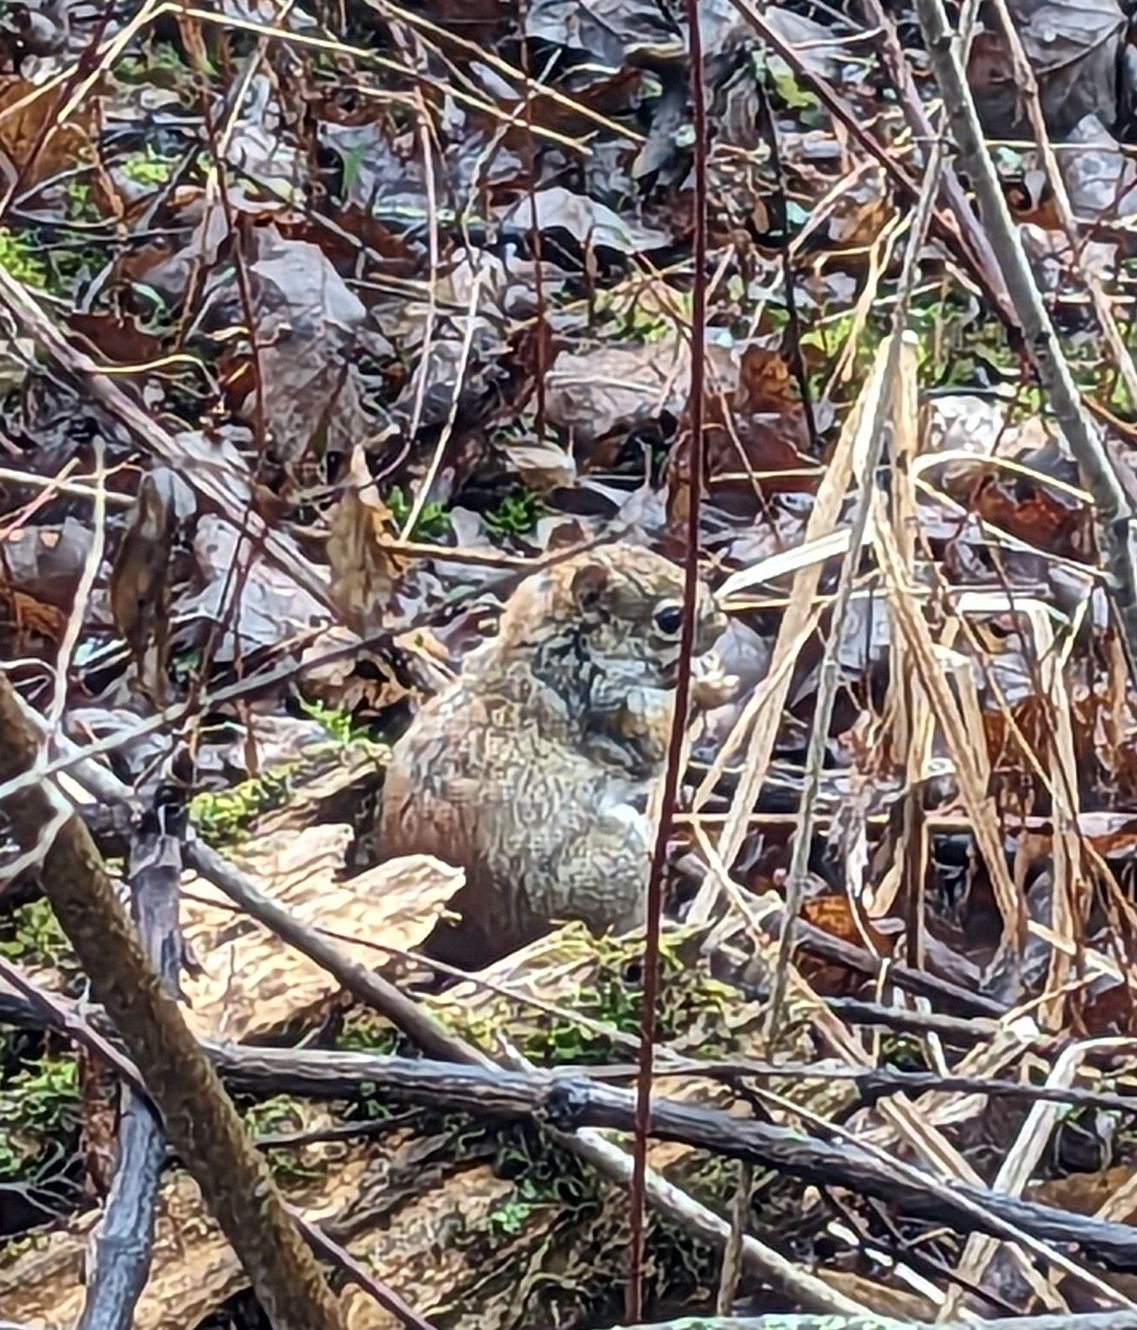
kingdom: Animalia
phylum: Chordata
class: Mammalia
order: Rodentia
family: Sciuridae
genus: Tamiasciurus
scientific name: Tamiasciurus hudsonicus
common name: Red squirrel
